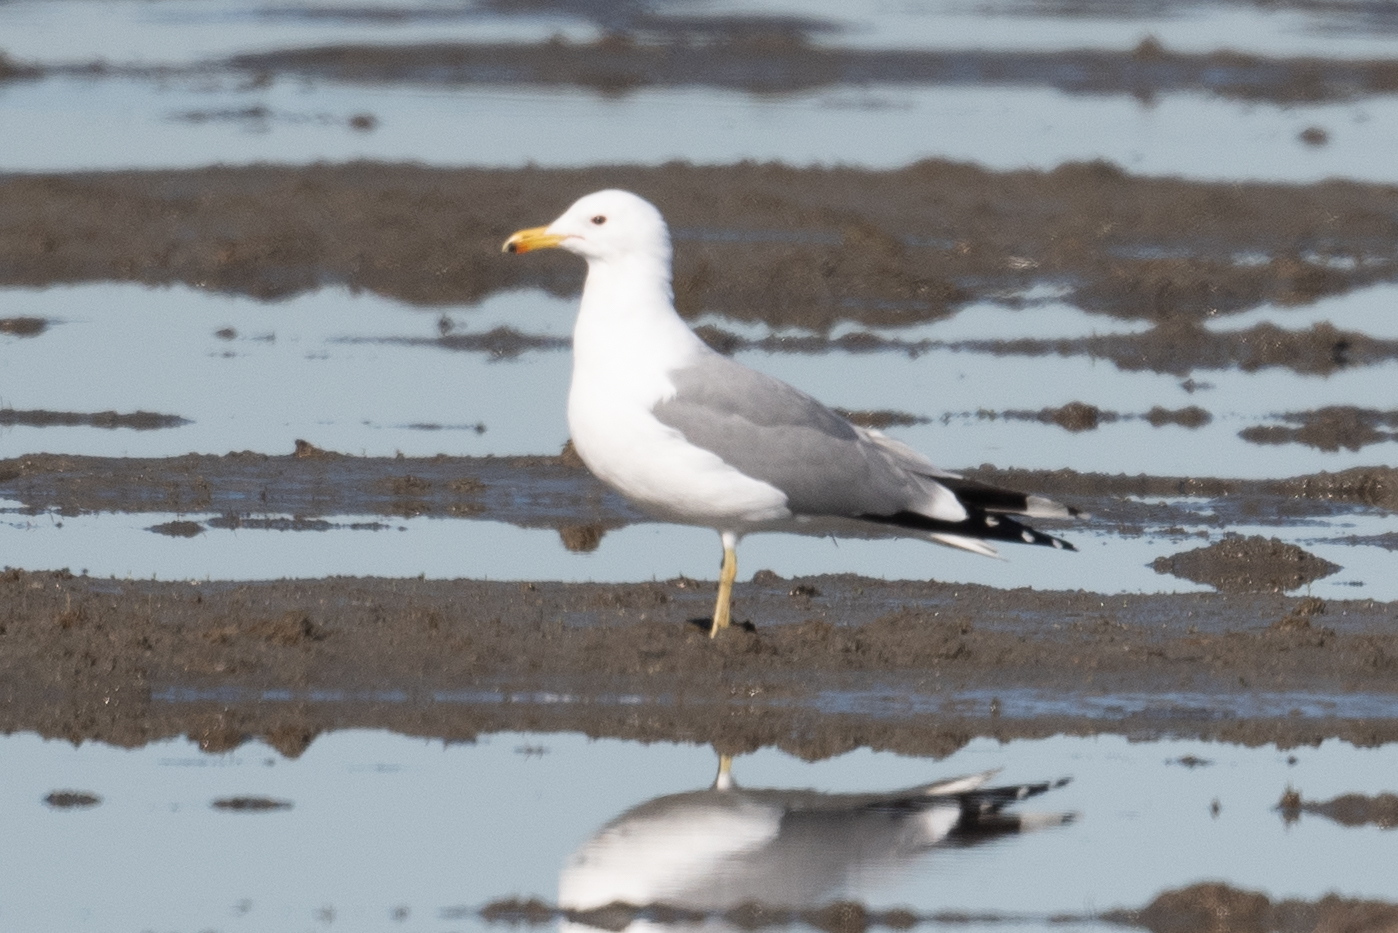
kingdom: Animalia
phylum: Chordata
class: Aves
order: Charadriiformes
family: Laridae
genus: Larus
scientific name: Larus californicus
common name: California gull
